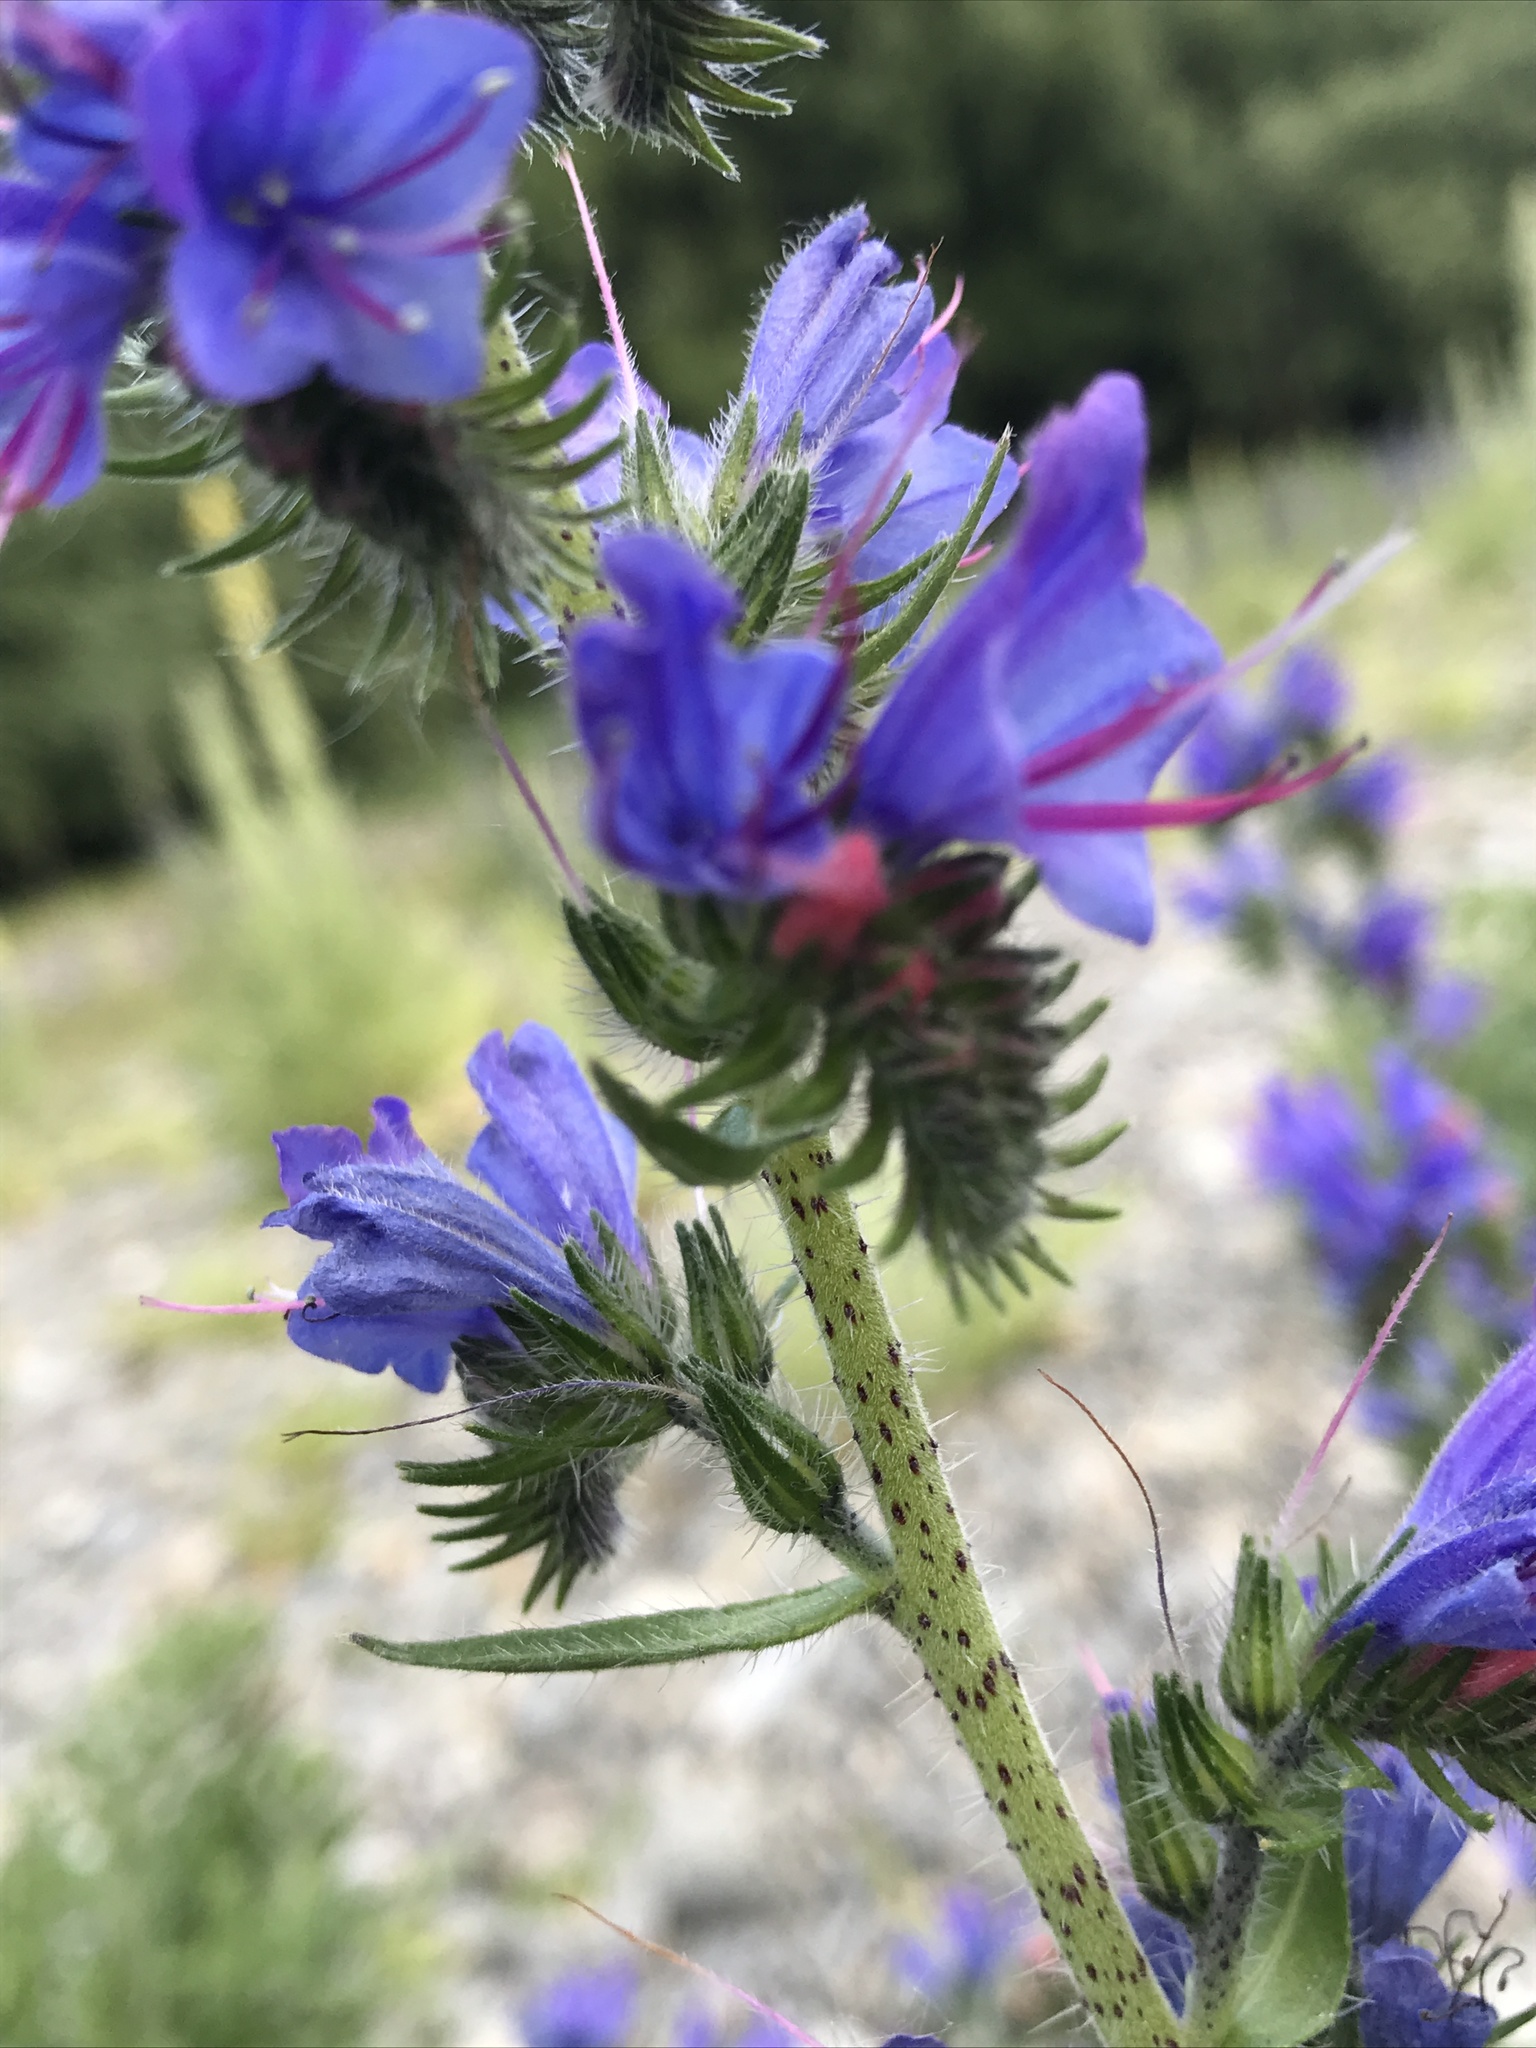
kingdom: Plantae
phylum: Tracheophyta
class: Magnoliopsida
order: Boraginales
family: Boraginaceae
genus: Echium
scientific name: Echium vulgare
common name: Common viper's bugloss
